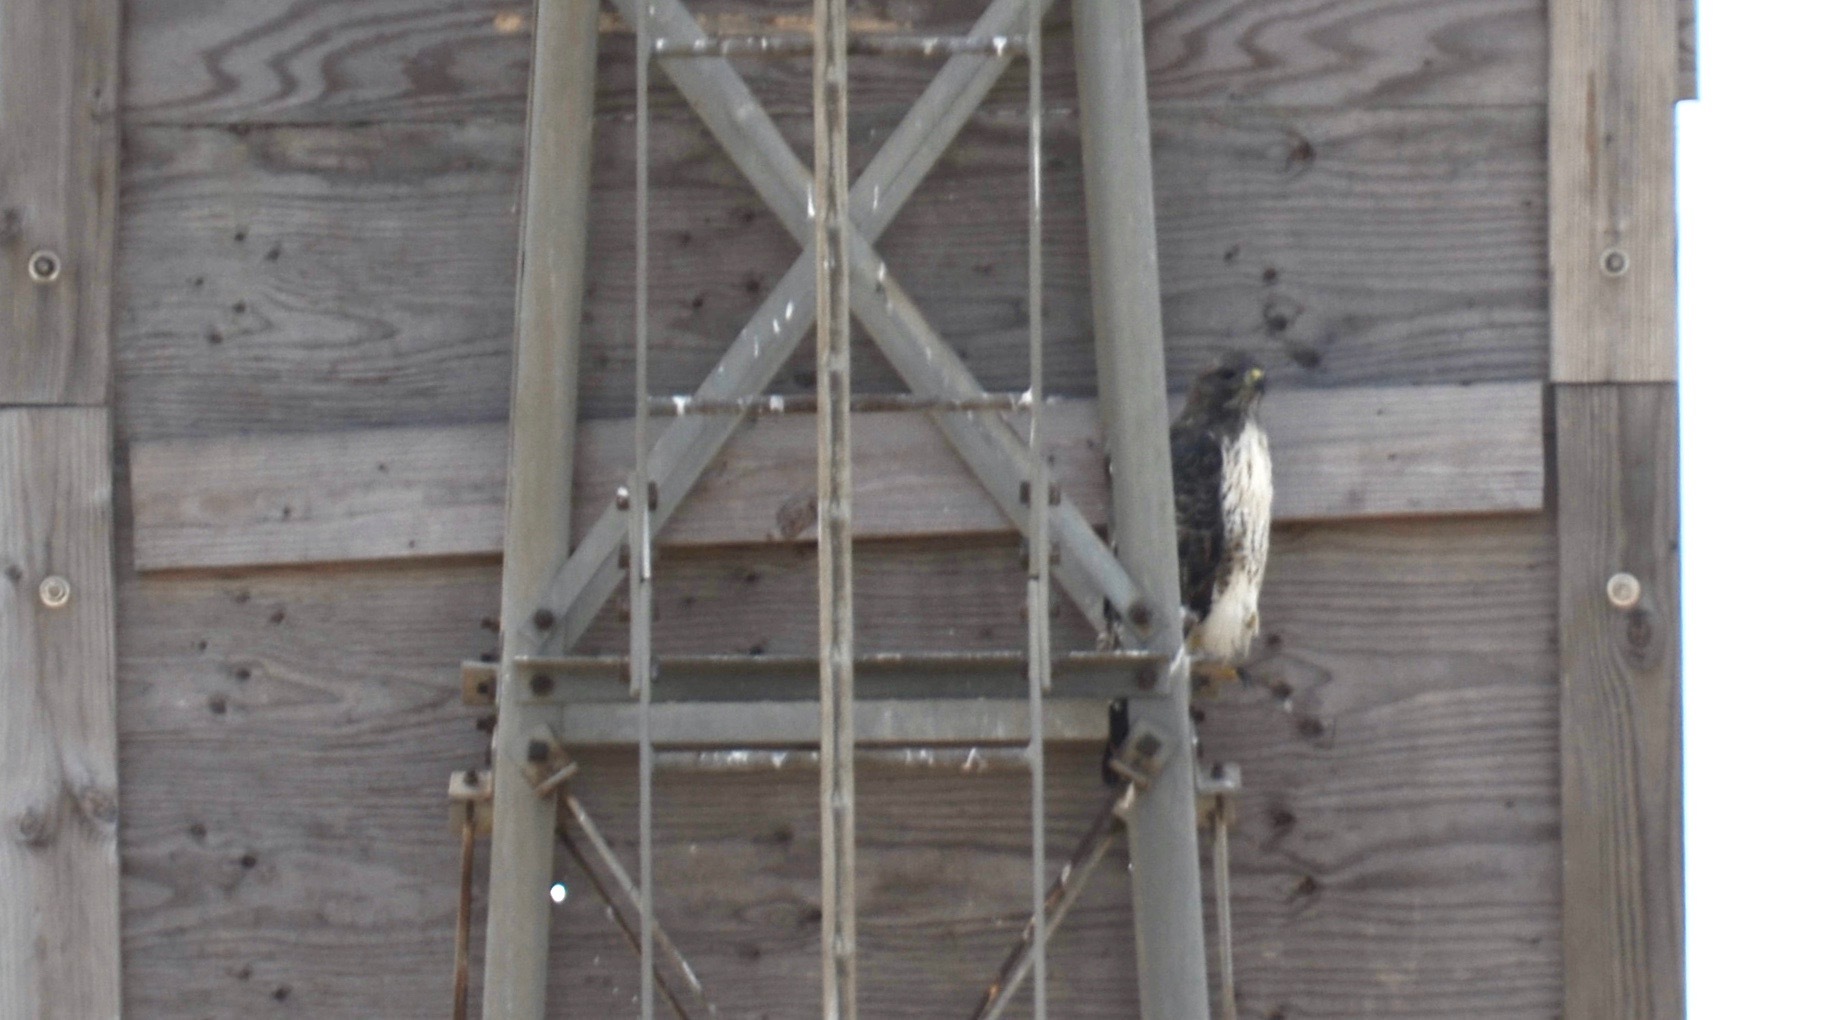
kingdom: Animalia
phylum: Chordata
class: Aves
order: Accipitriformes
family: Accipitridae
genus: Buteo
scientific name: Buteo jamaicensis
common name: Red-tailed hawk
